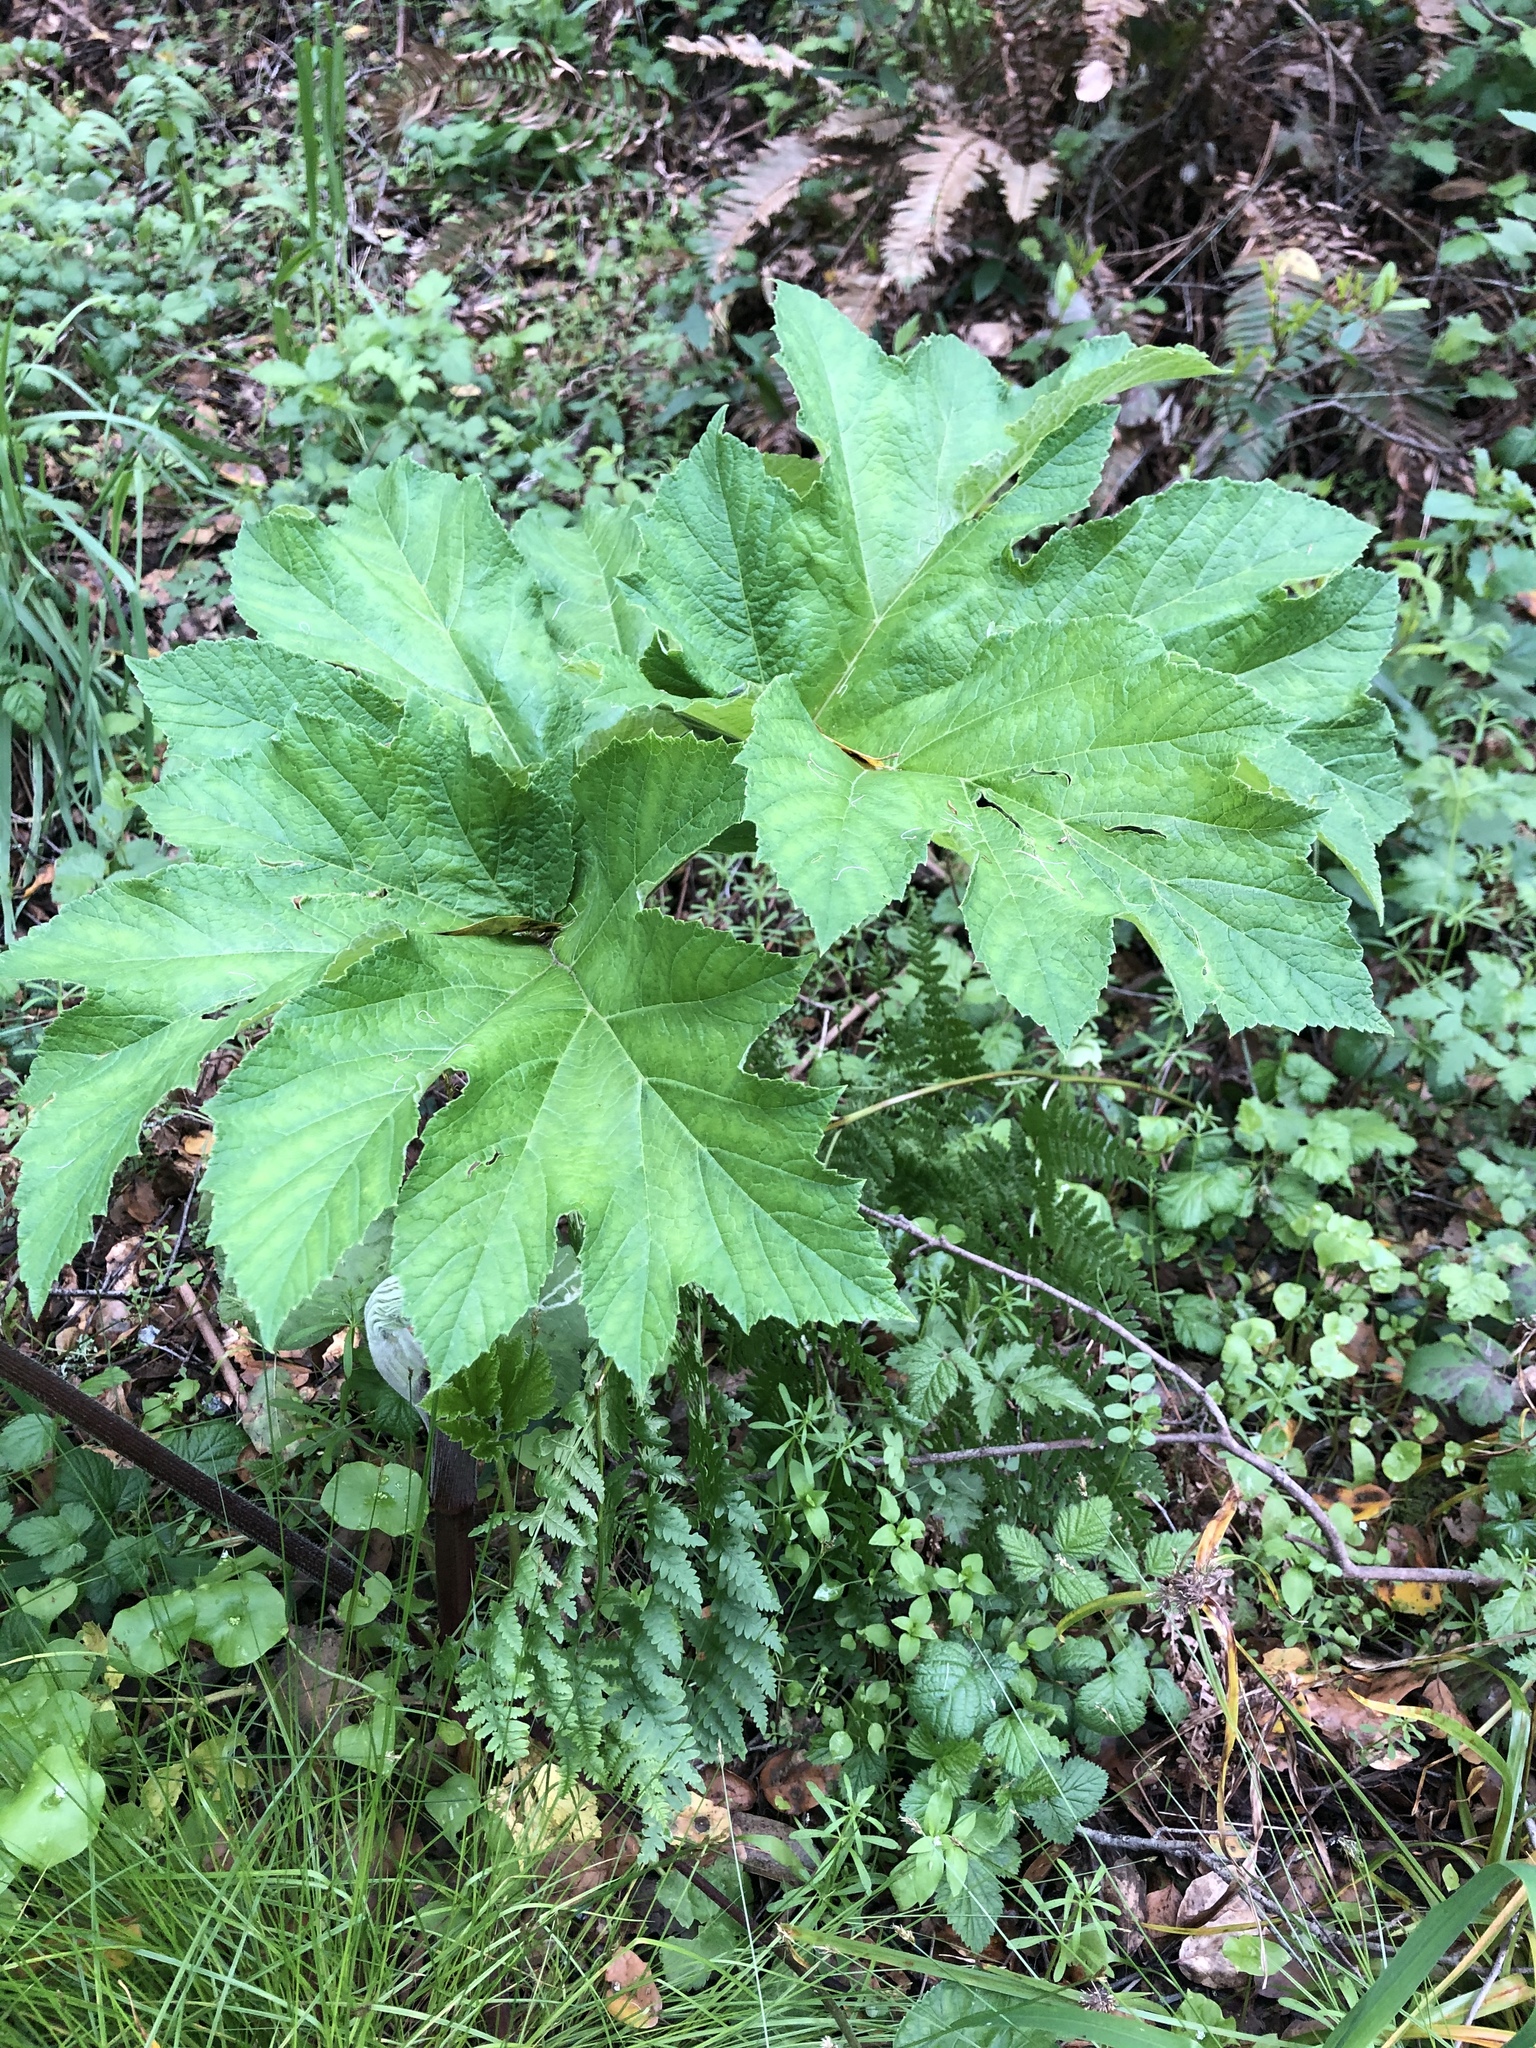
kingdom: Plantae
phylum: Tracheophyta
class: Magnoliopsida
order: Apiales
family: Apiaceae
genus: Heracleum
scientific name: Heracleum maximum
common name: American cow parsnip
